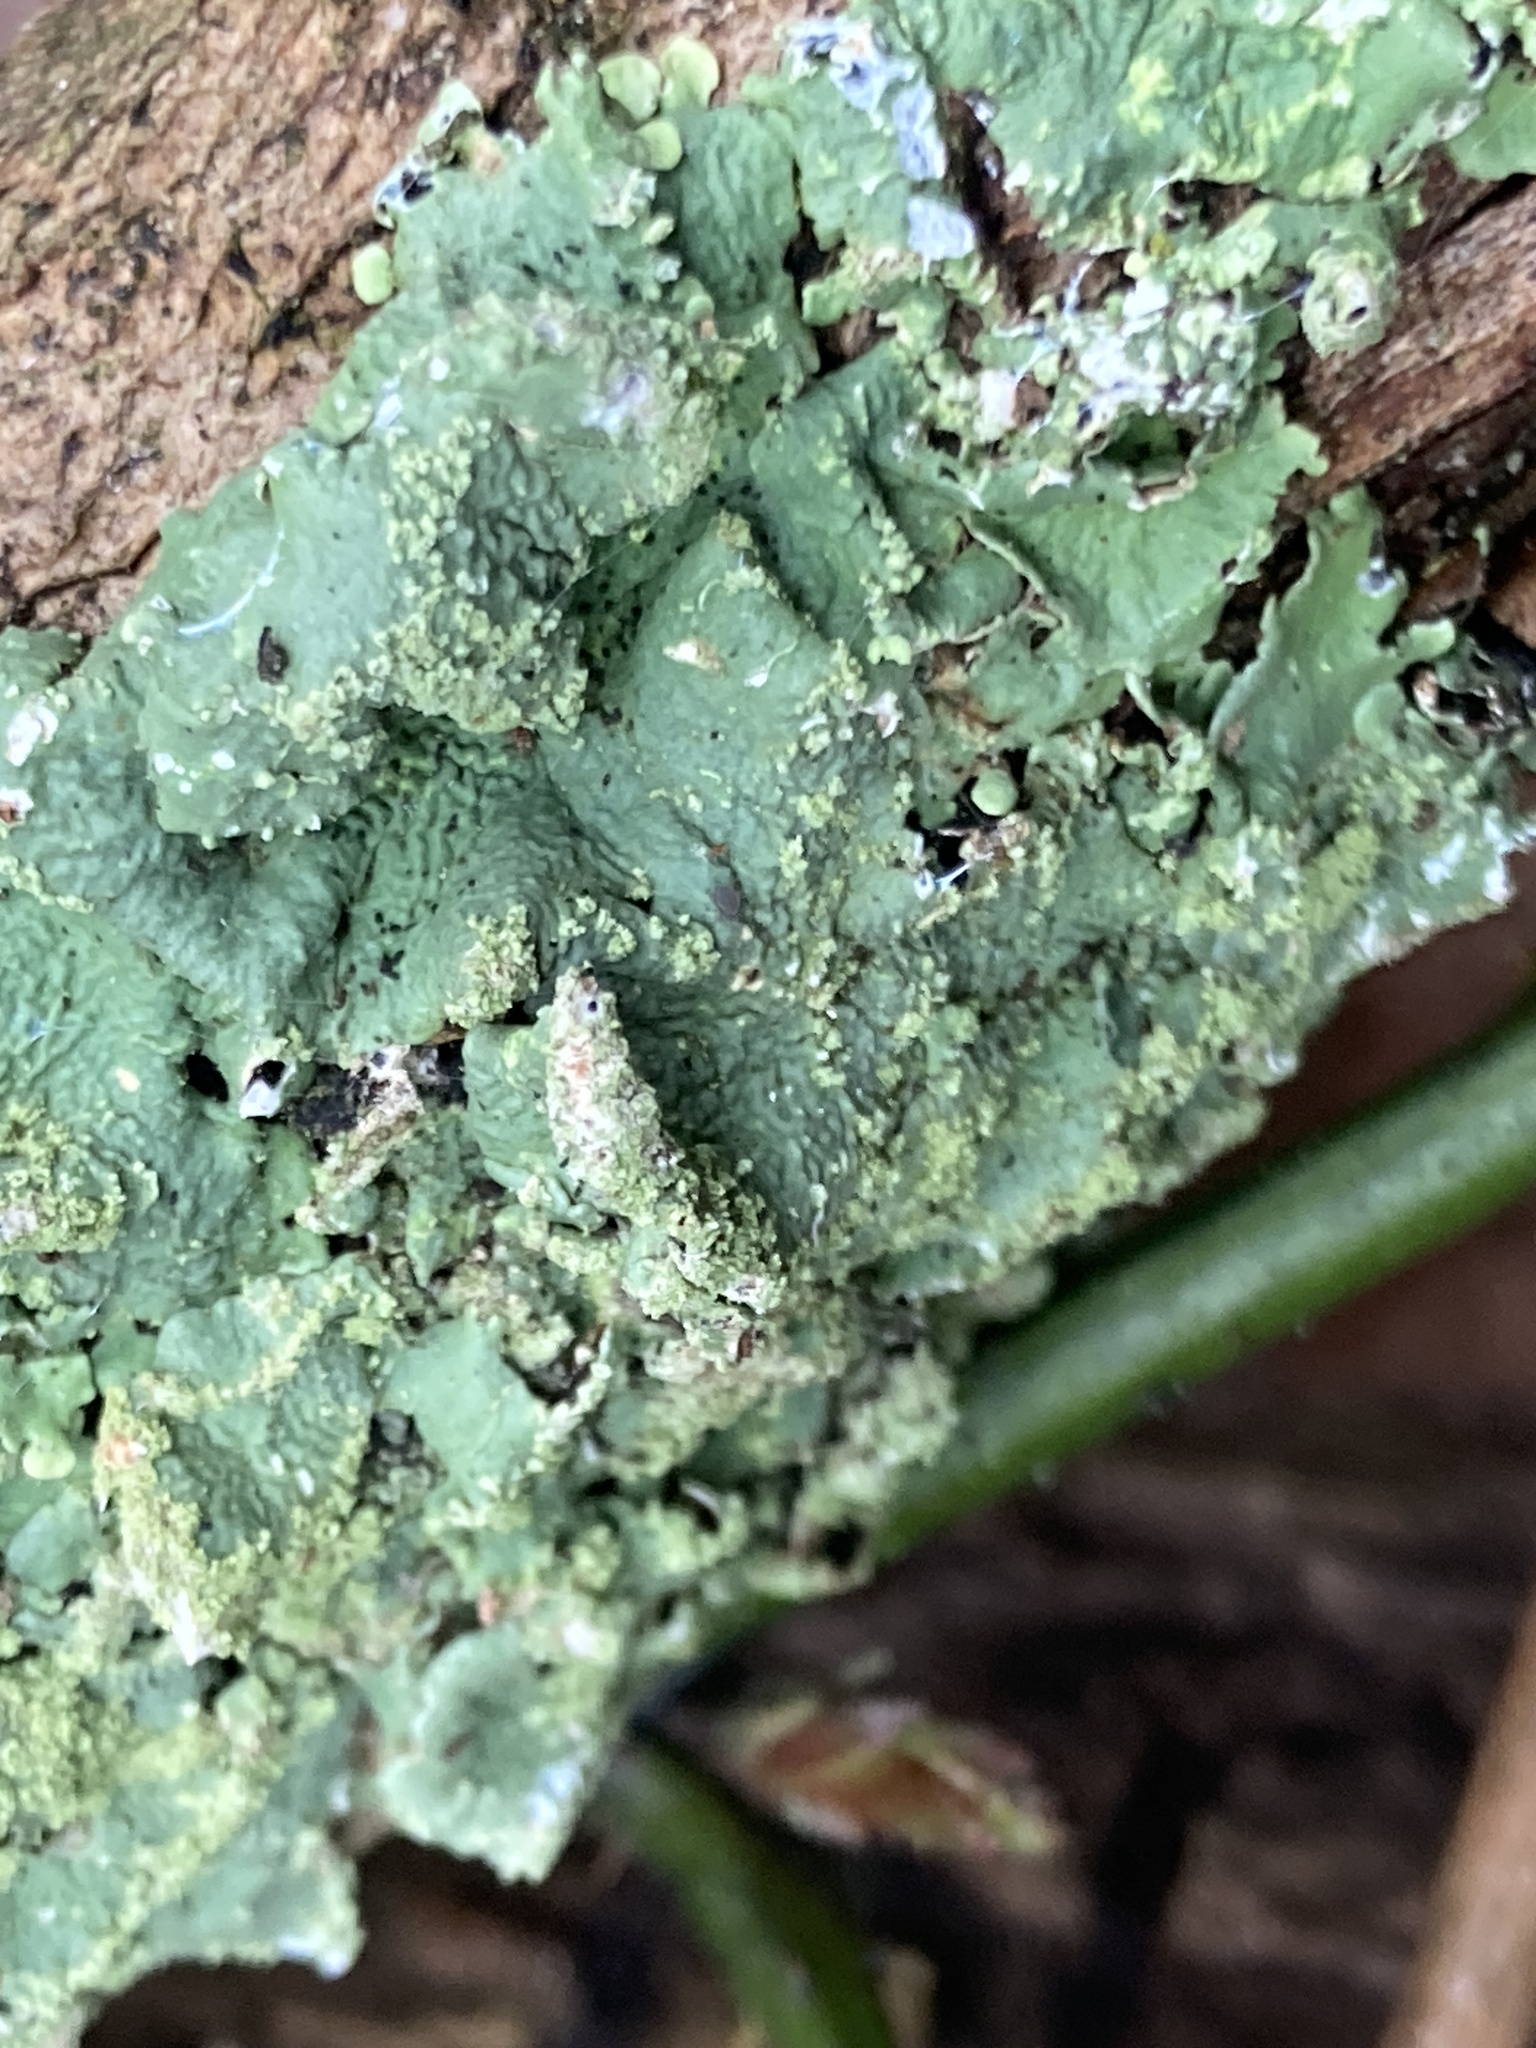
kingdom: Fungi
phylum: Ascomycota
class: Lecanoromycetes
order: Lecanorales
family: Parmeliaceae
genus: Flavoparmelia
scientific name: Flavoparmelia caperata
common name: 40-mile per hour lichen
